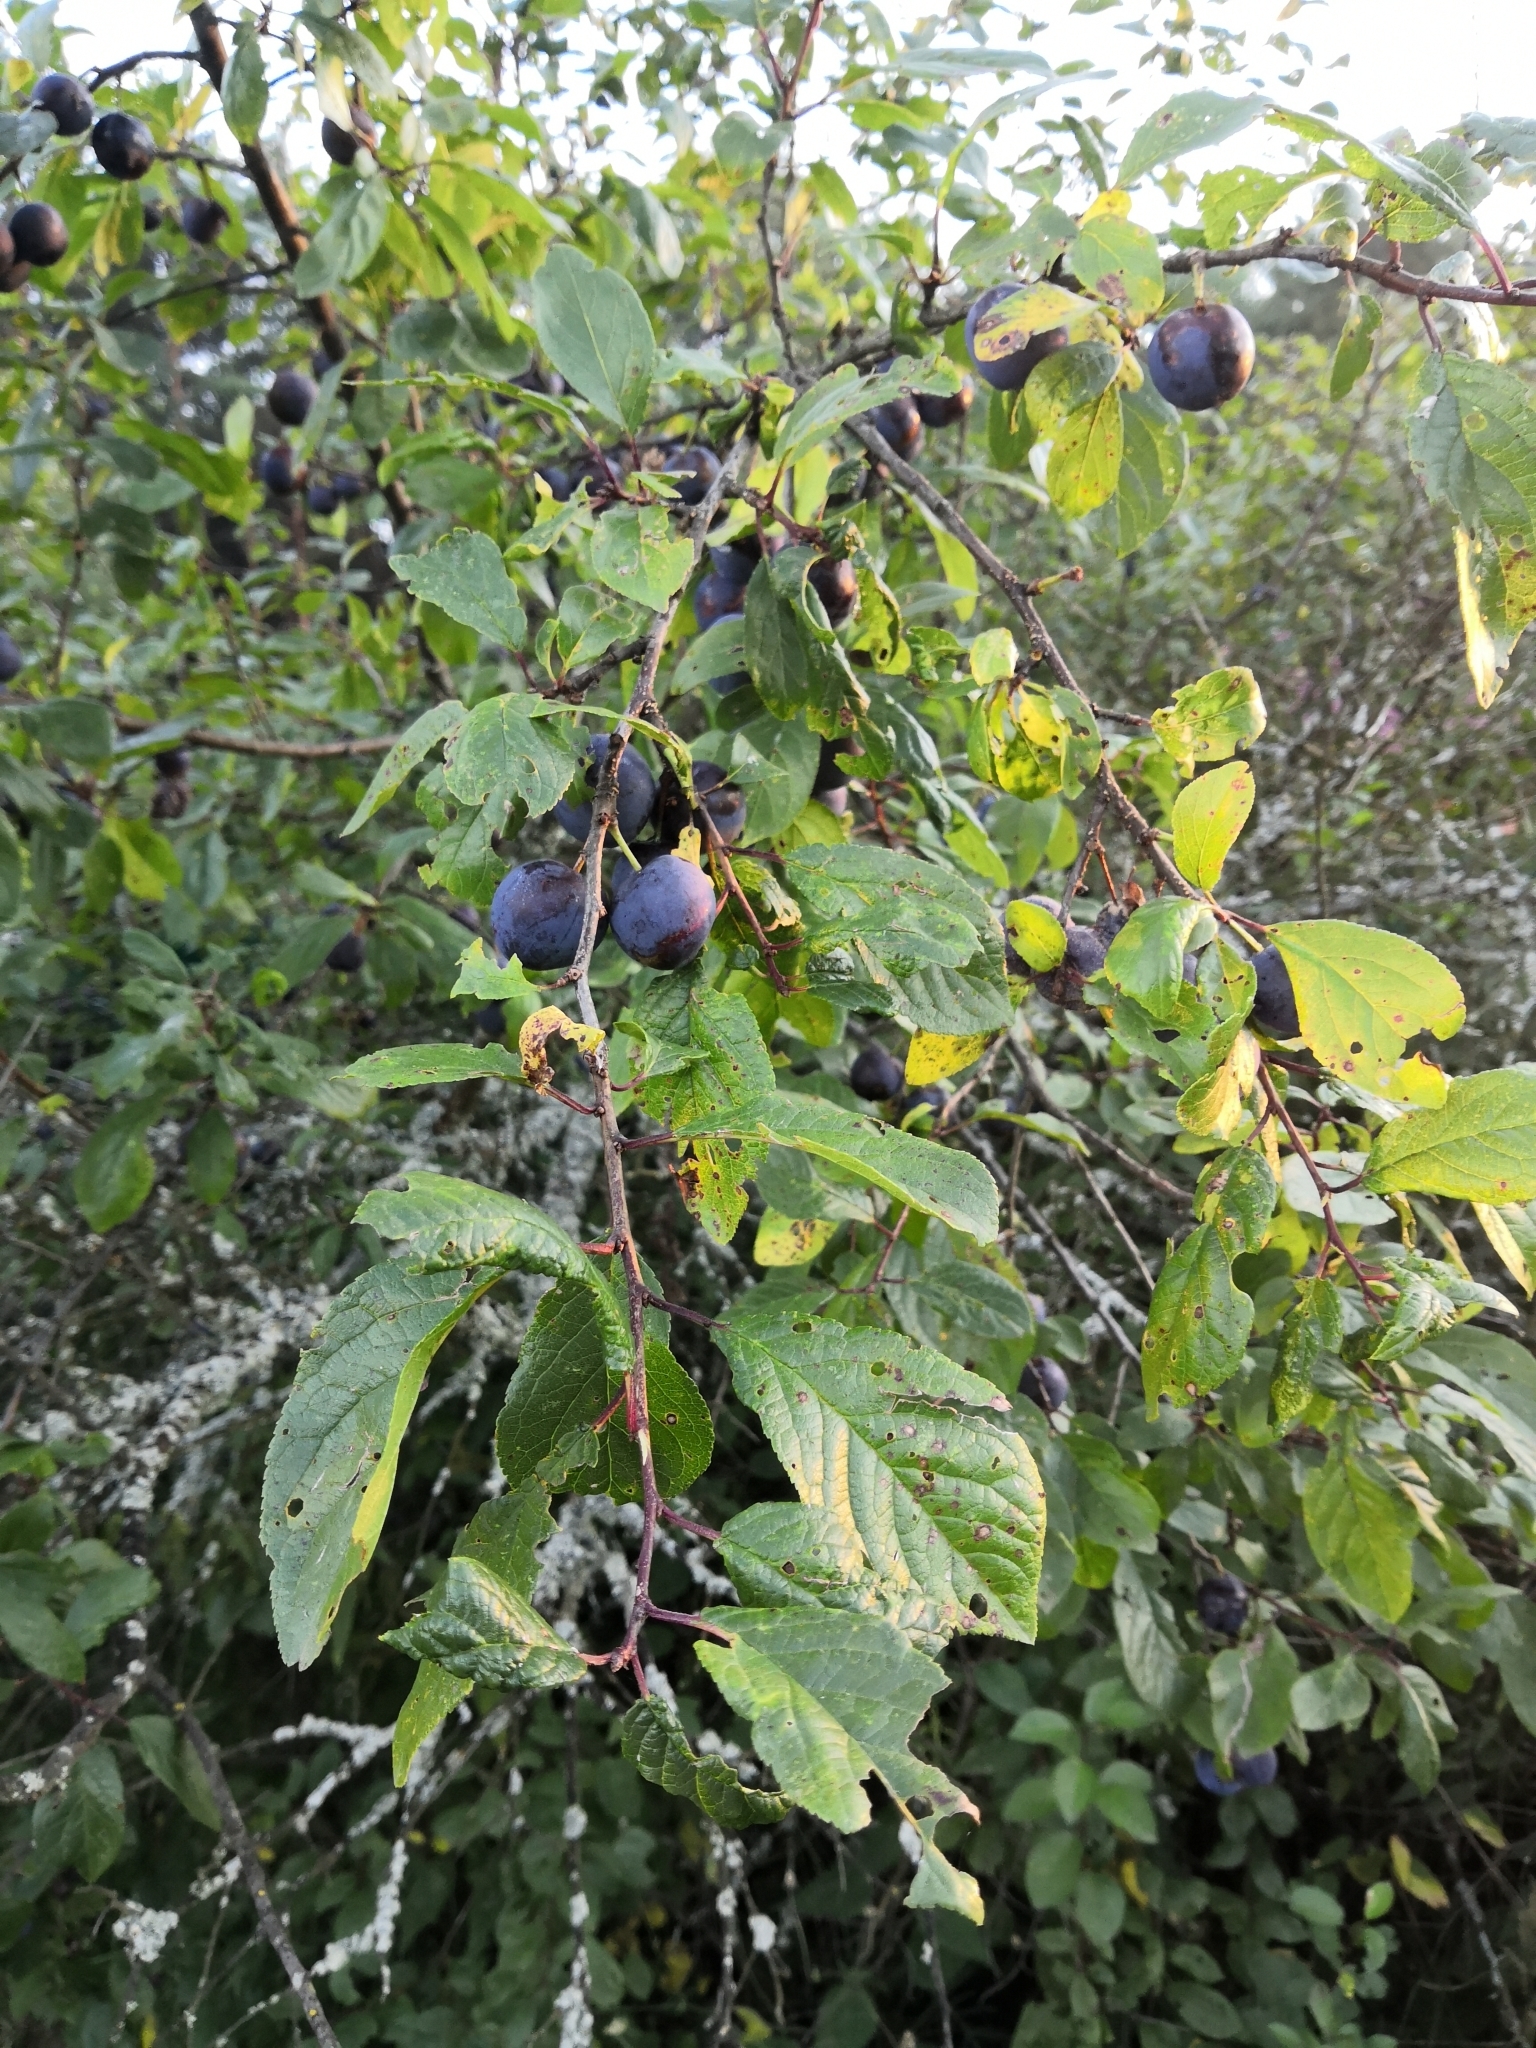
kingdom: Plantae
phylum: Tracheophyta
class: Magnoliopsida
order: Rosales
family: Rosaceae
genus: Prunus
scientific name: Prunus domestica
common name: Wild plum
